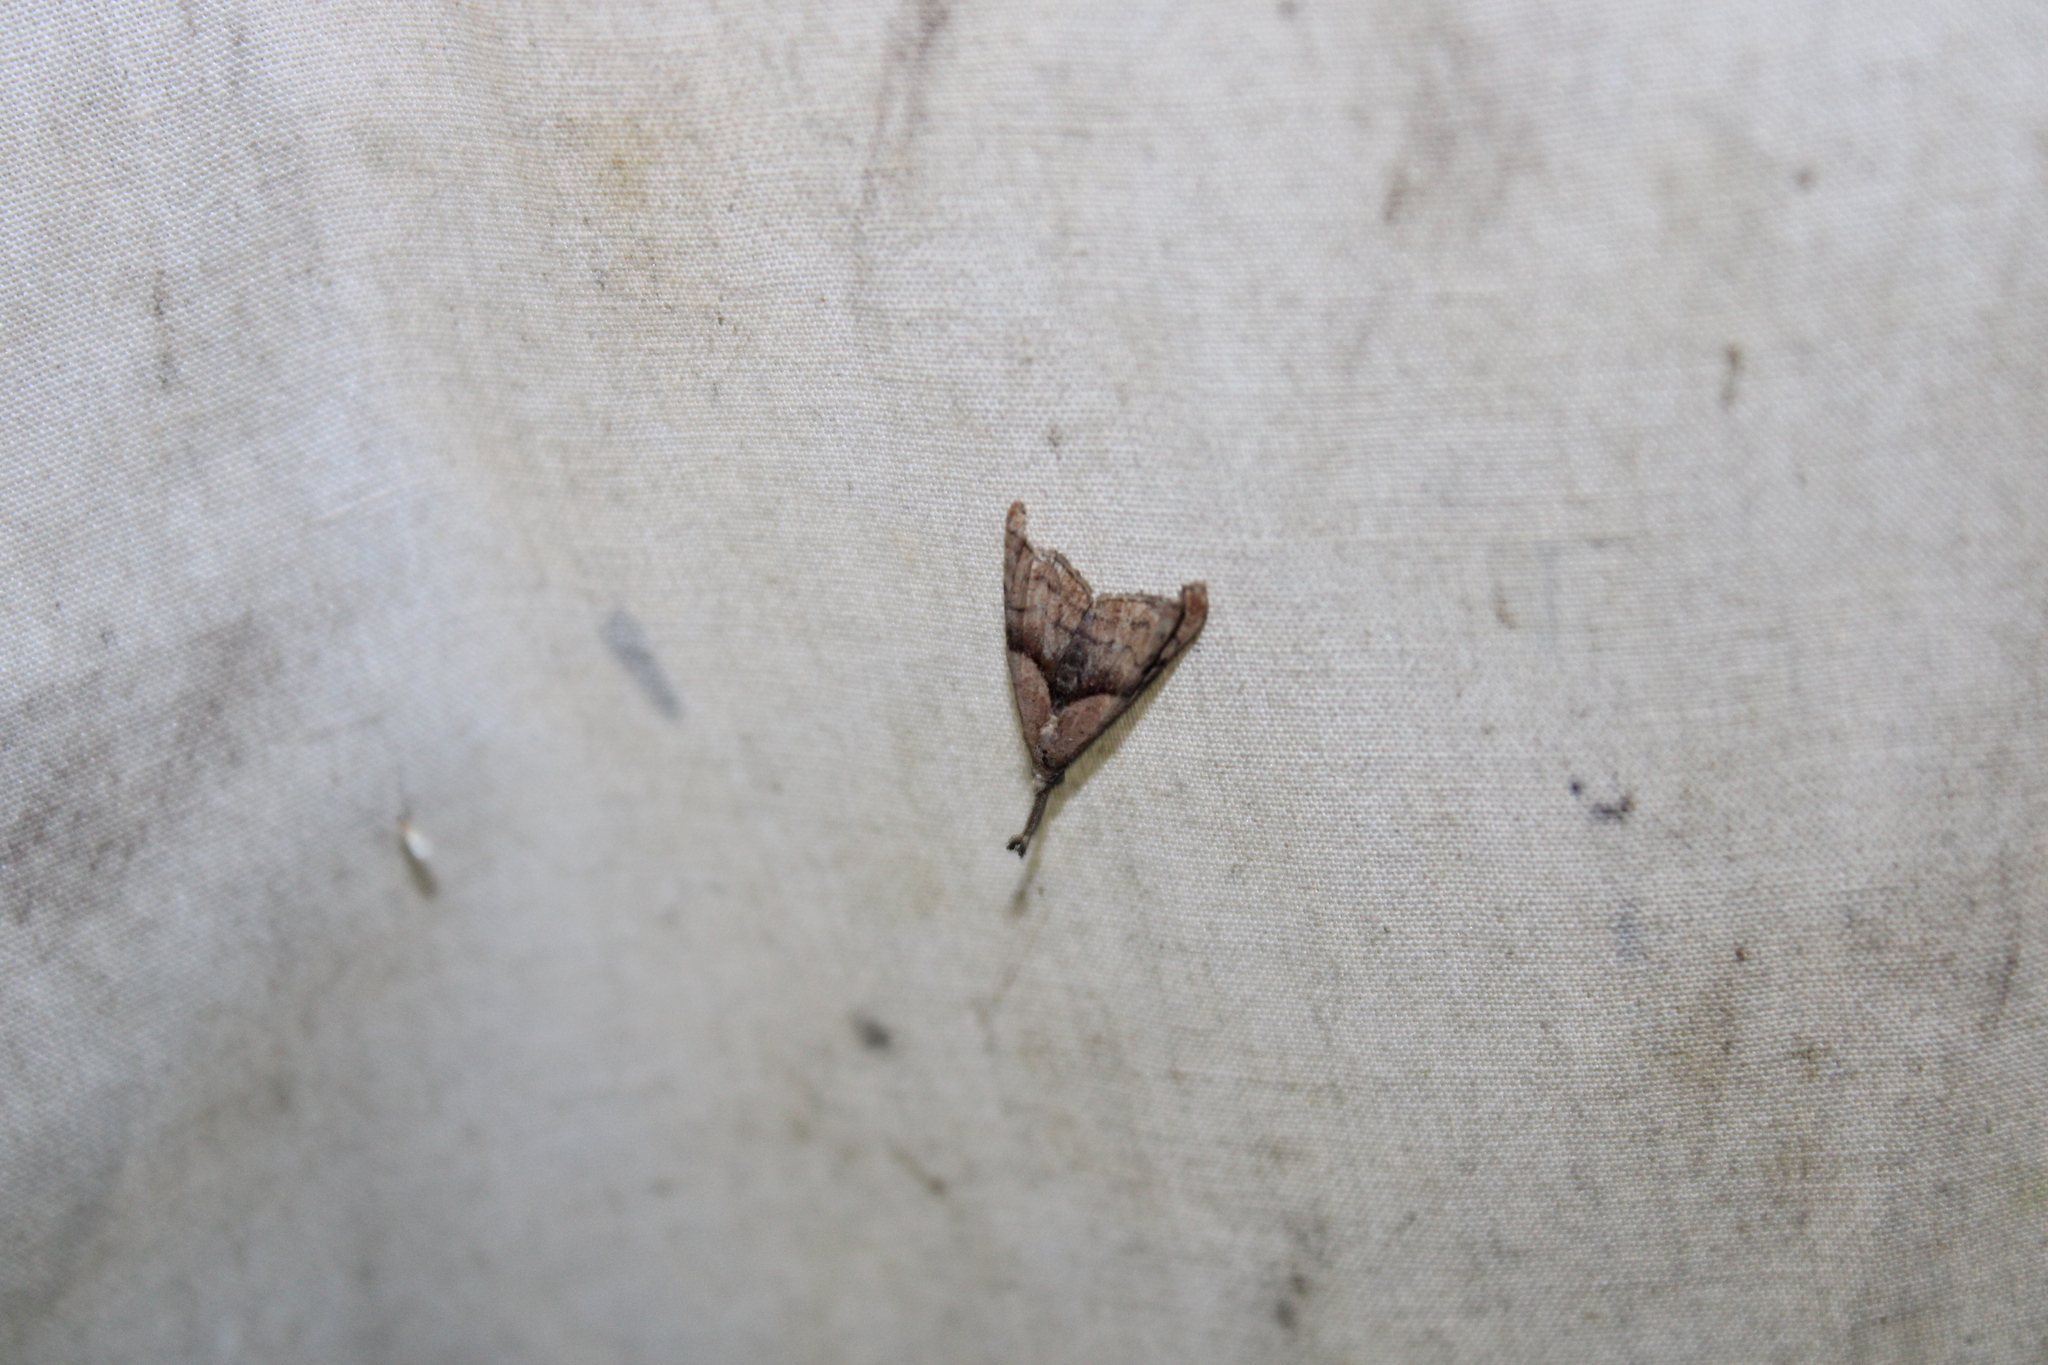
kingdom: Animalia
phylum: Arthropoda
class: Insecta
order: Lepidoptera
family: Erebidae
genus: Palthis
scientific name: Palthis angulalis
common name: Dark-spotted palthis moth
